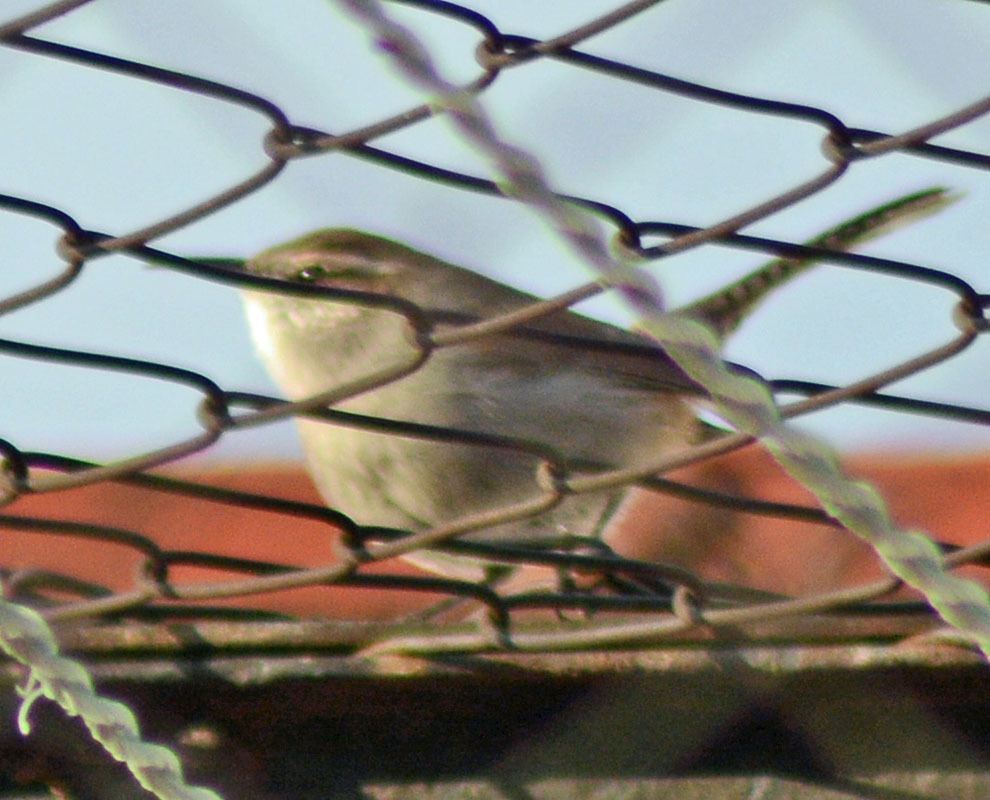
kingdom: Animalia
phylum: Chordata
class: Aves
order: Passeriformes
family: Troglodytidae
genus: Thryomanes
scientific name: Thryomanes bewickii
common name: Bewick's wren
